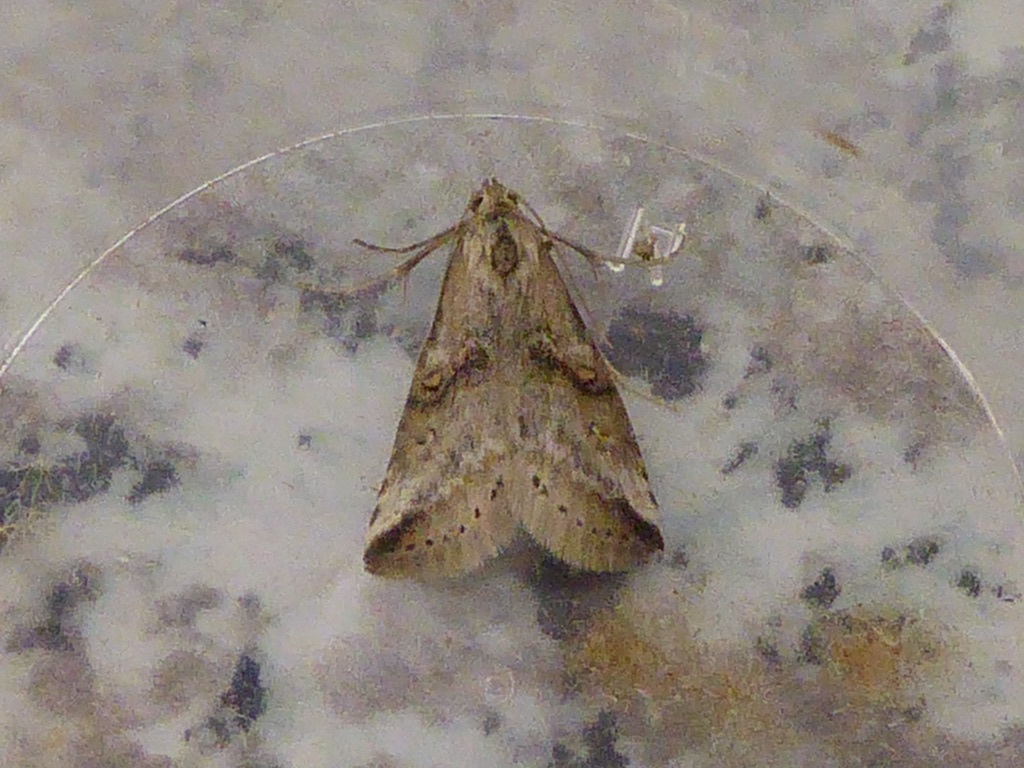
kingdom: Animalia
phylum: Arthropoda
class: Insecta
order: Lepidoptera
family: Erebidae
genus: Zebeeba
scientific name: Zebeeba falsalis
